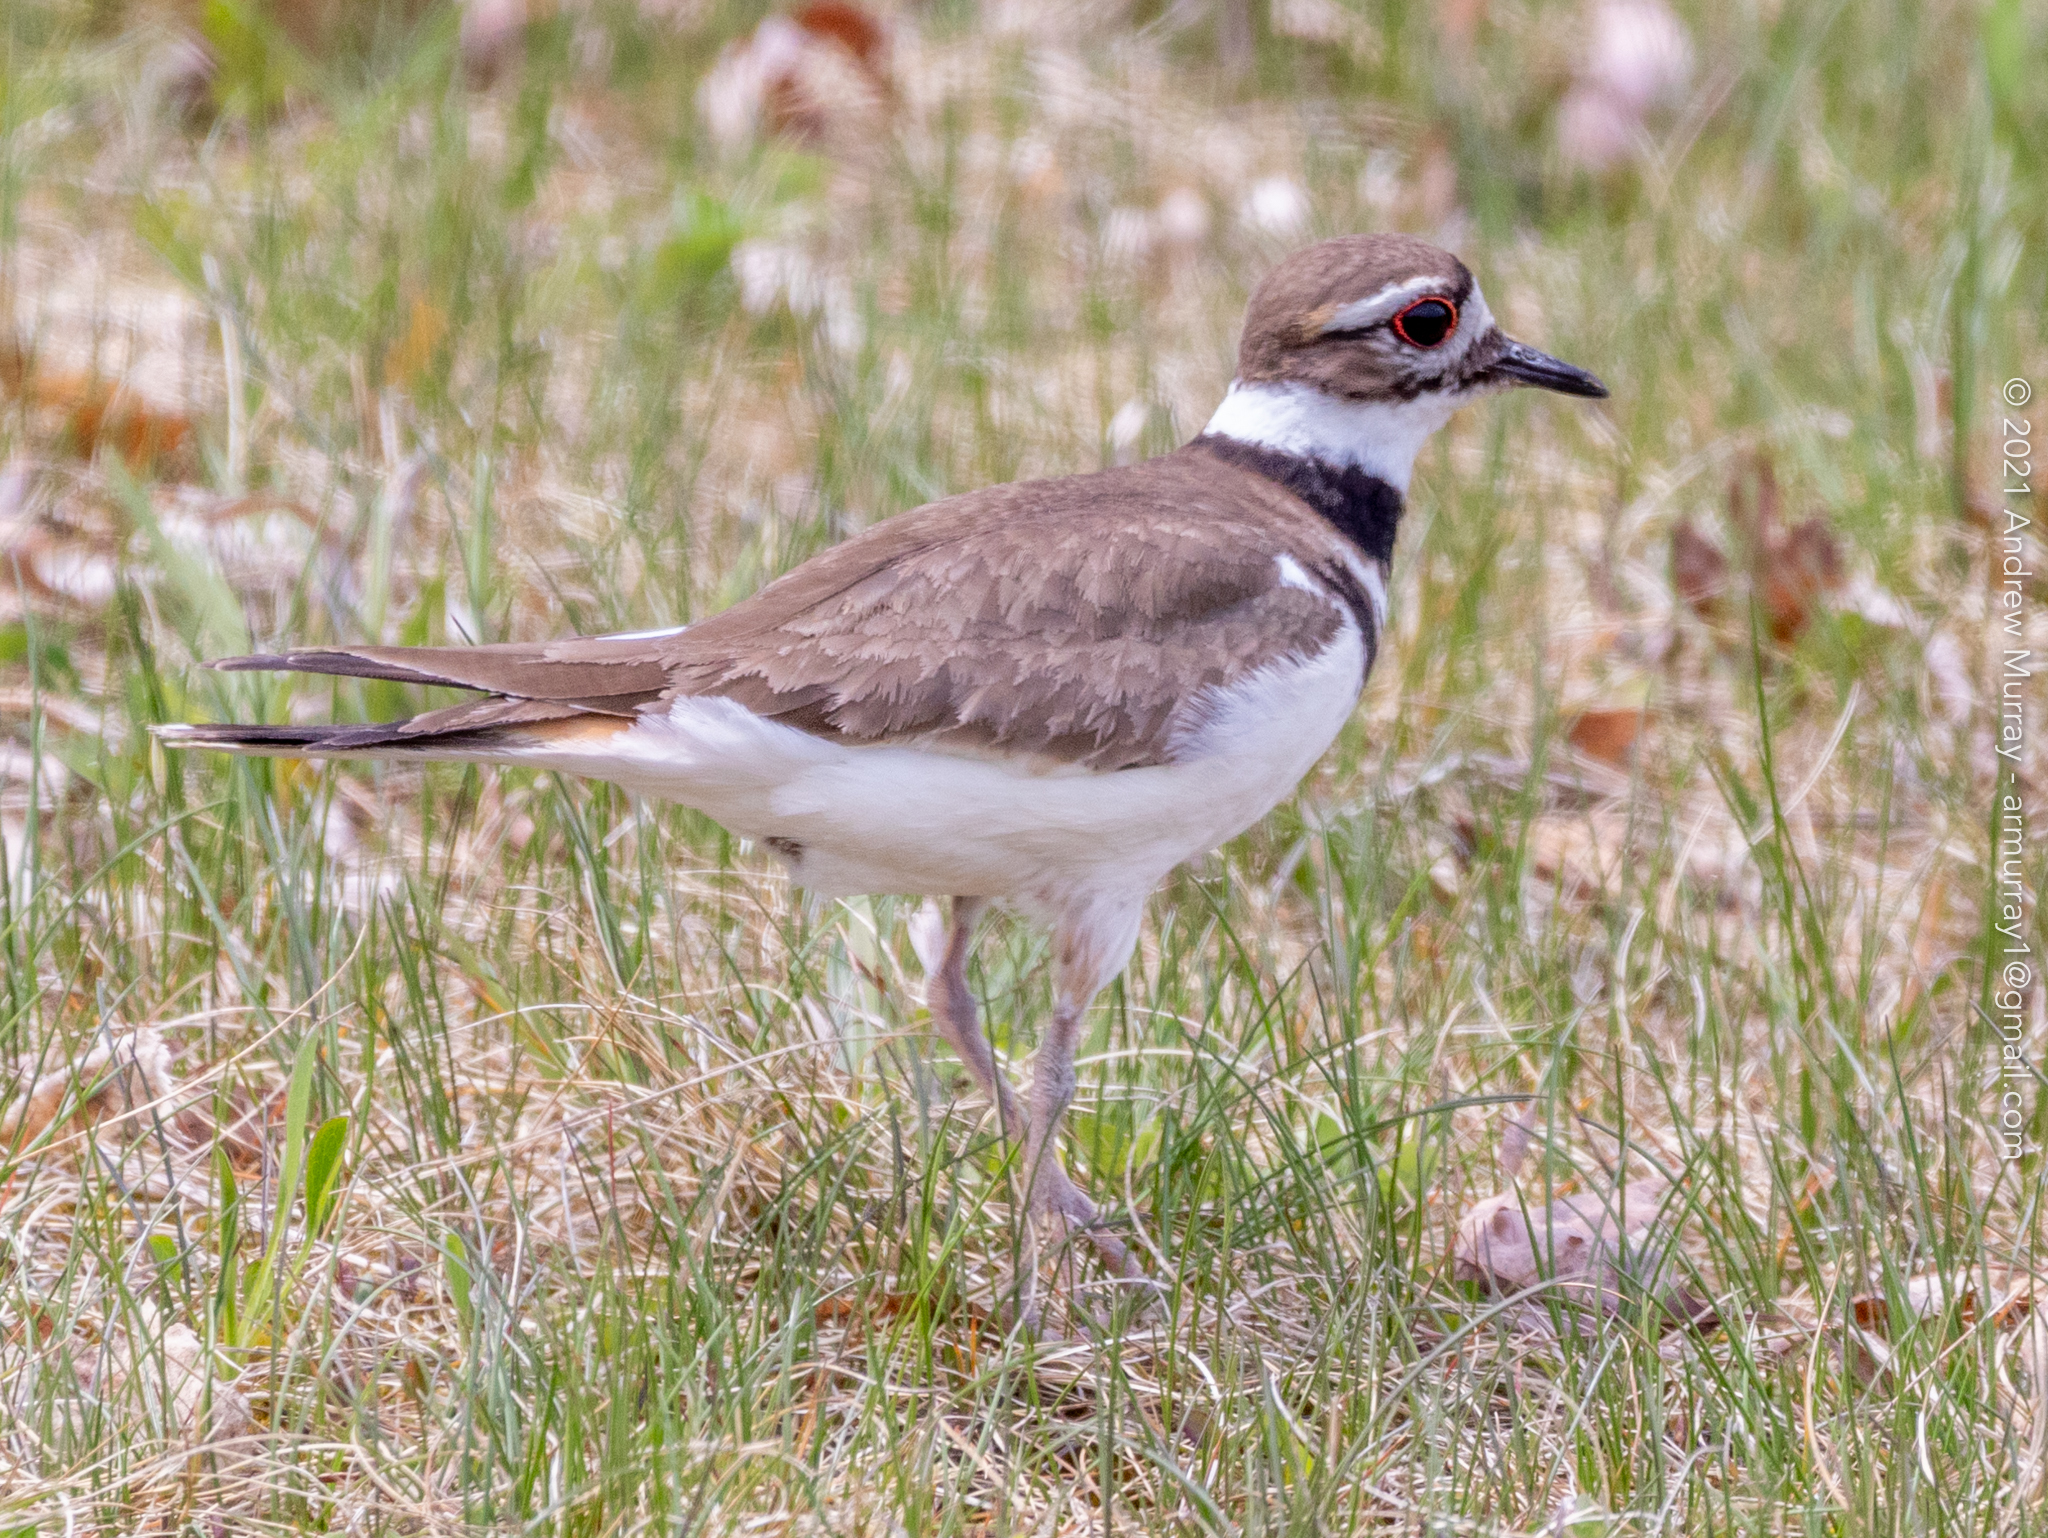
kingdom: Animalia
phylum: Chordata
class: Aves
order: Charadriiformes
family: Charadriidae
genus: Charadrius
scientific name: Charadrius vociferus
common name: Killdeer
